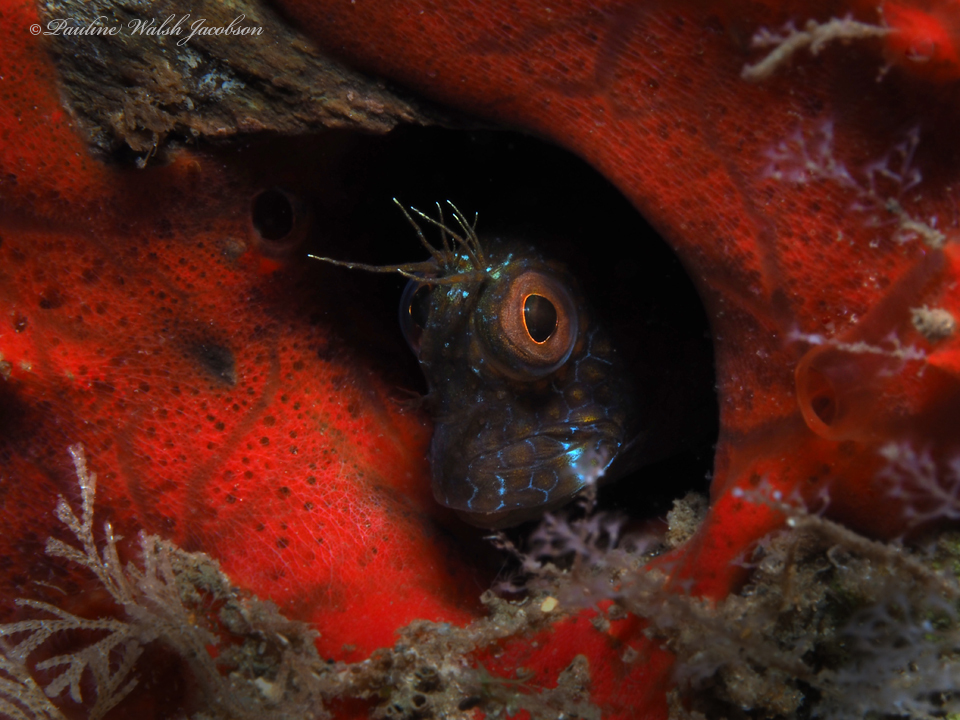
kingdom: Animalia
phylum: Chordata
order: Perciformes
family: Blenniidae
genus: Parablennius
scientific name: Parablennius marmoreus
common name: Seaweed blenny
